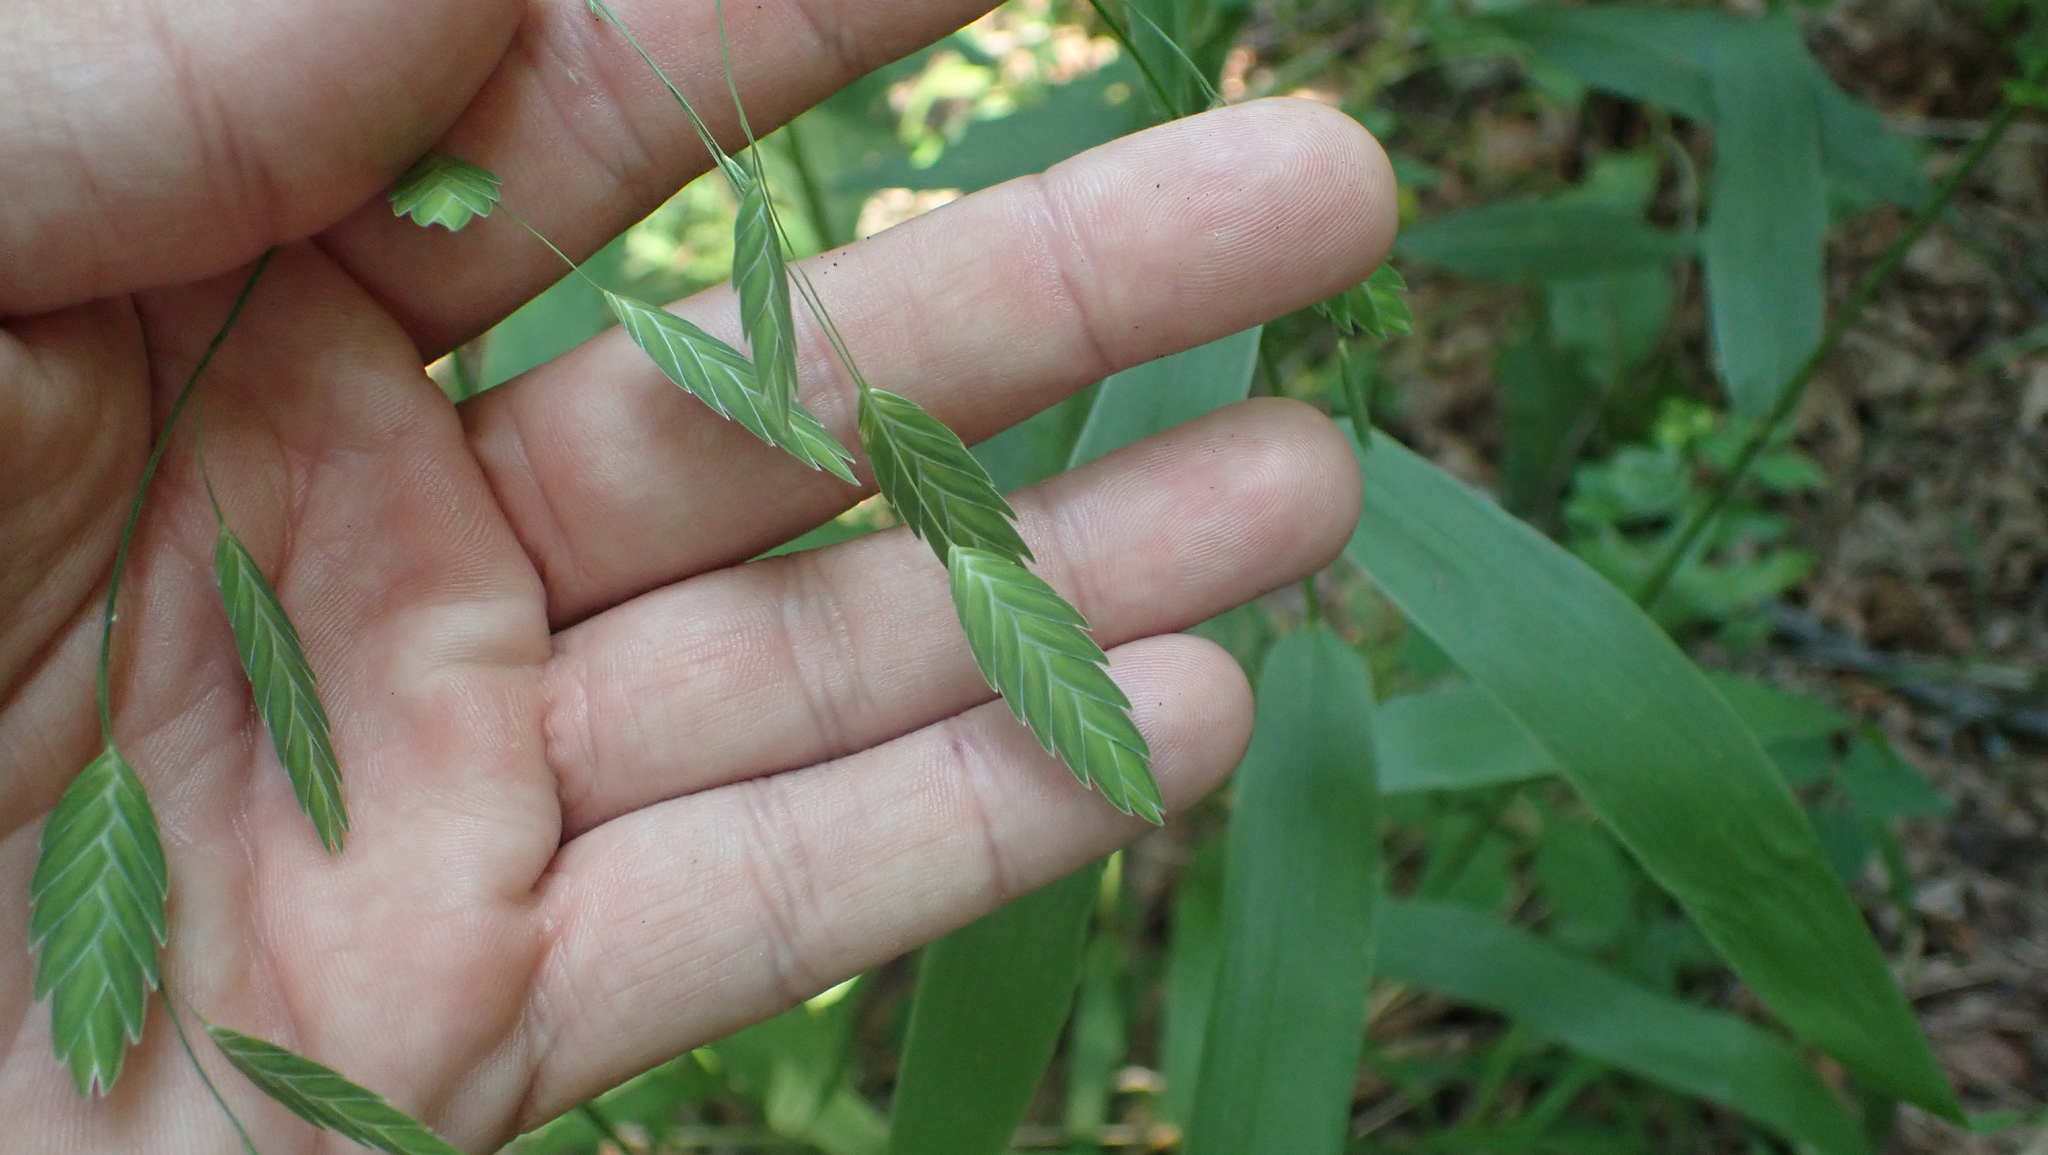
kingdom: Plantae
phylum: Tracheophyta
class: Liliopsida
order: Poales
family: Poaceae
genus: Chasmanthium
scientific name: Chasmanthium latifolium
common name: Broad-leaved chasmanthium
